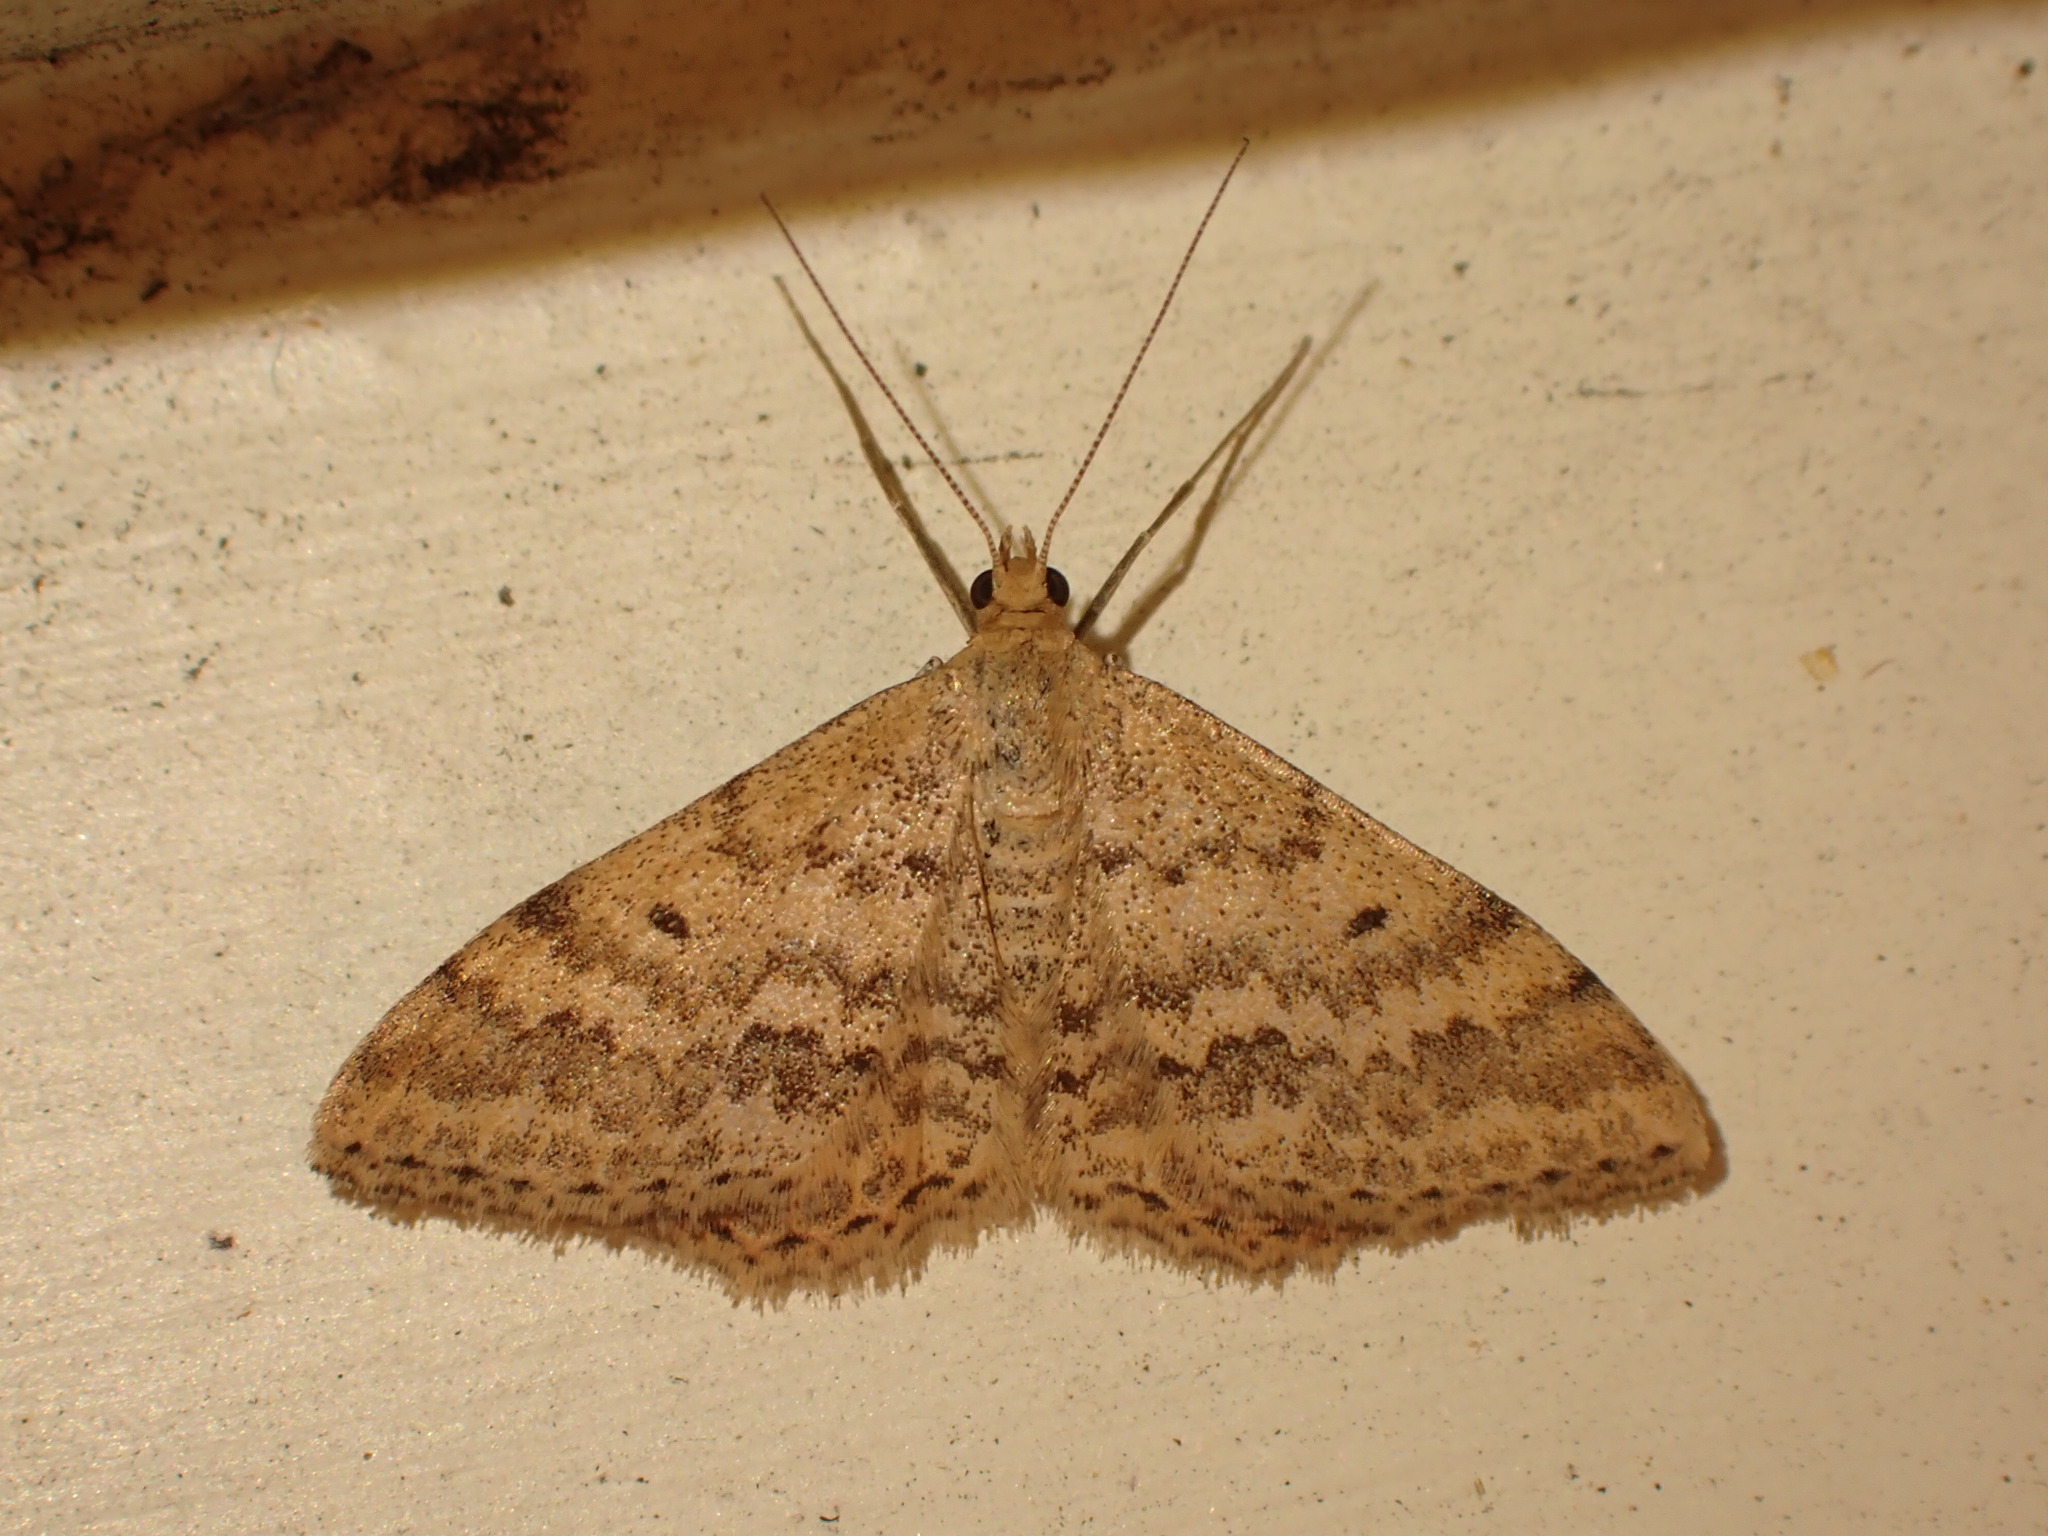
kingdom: Animalia
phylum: Arthropoda
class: Insecta
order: Lepidoptera
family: Geometridae
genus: Scopula
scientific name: Scopula rubraria
